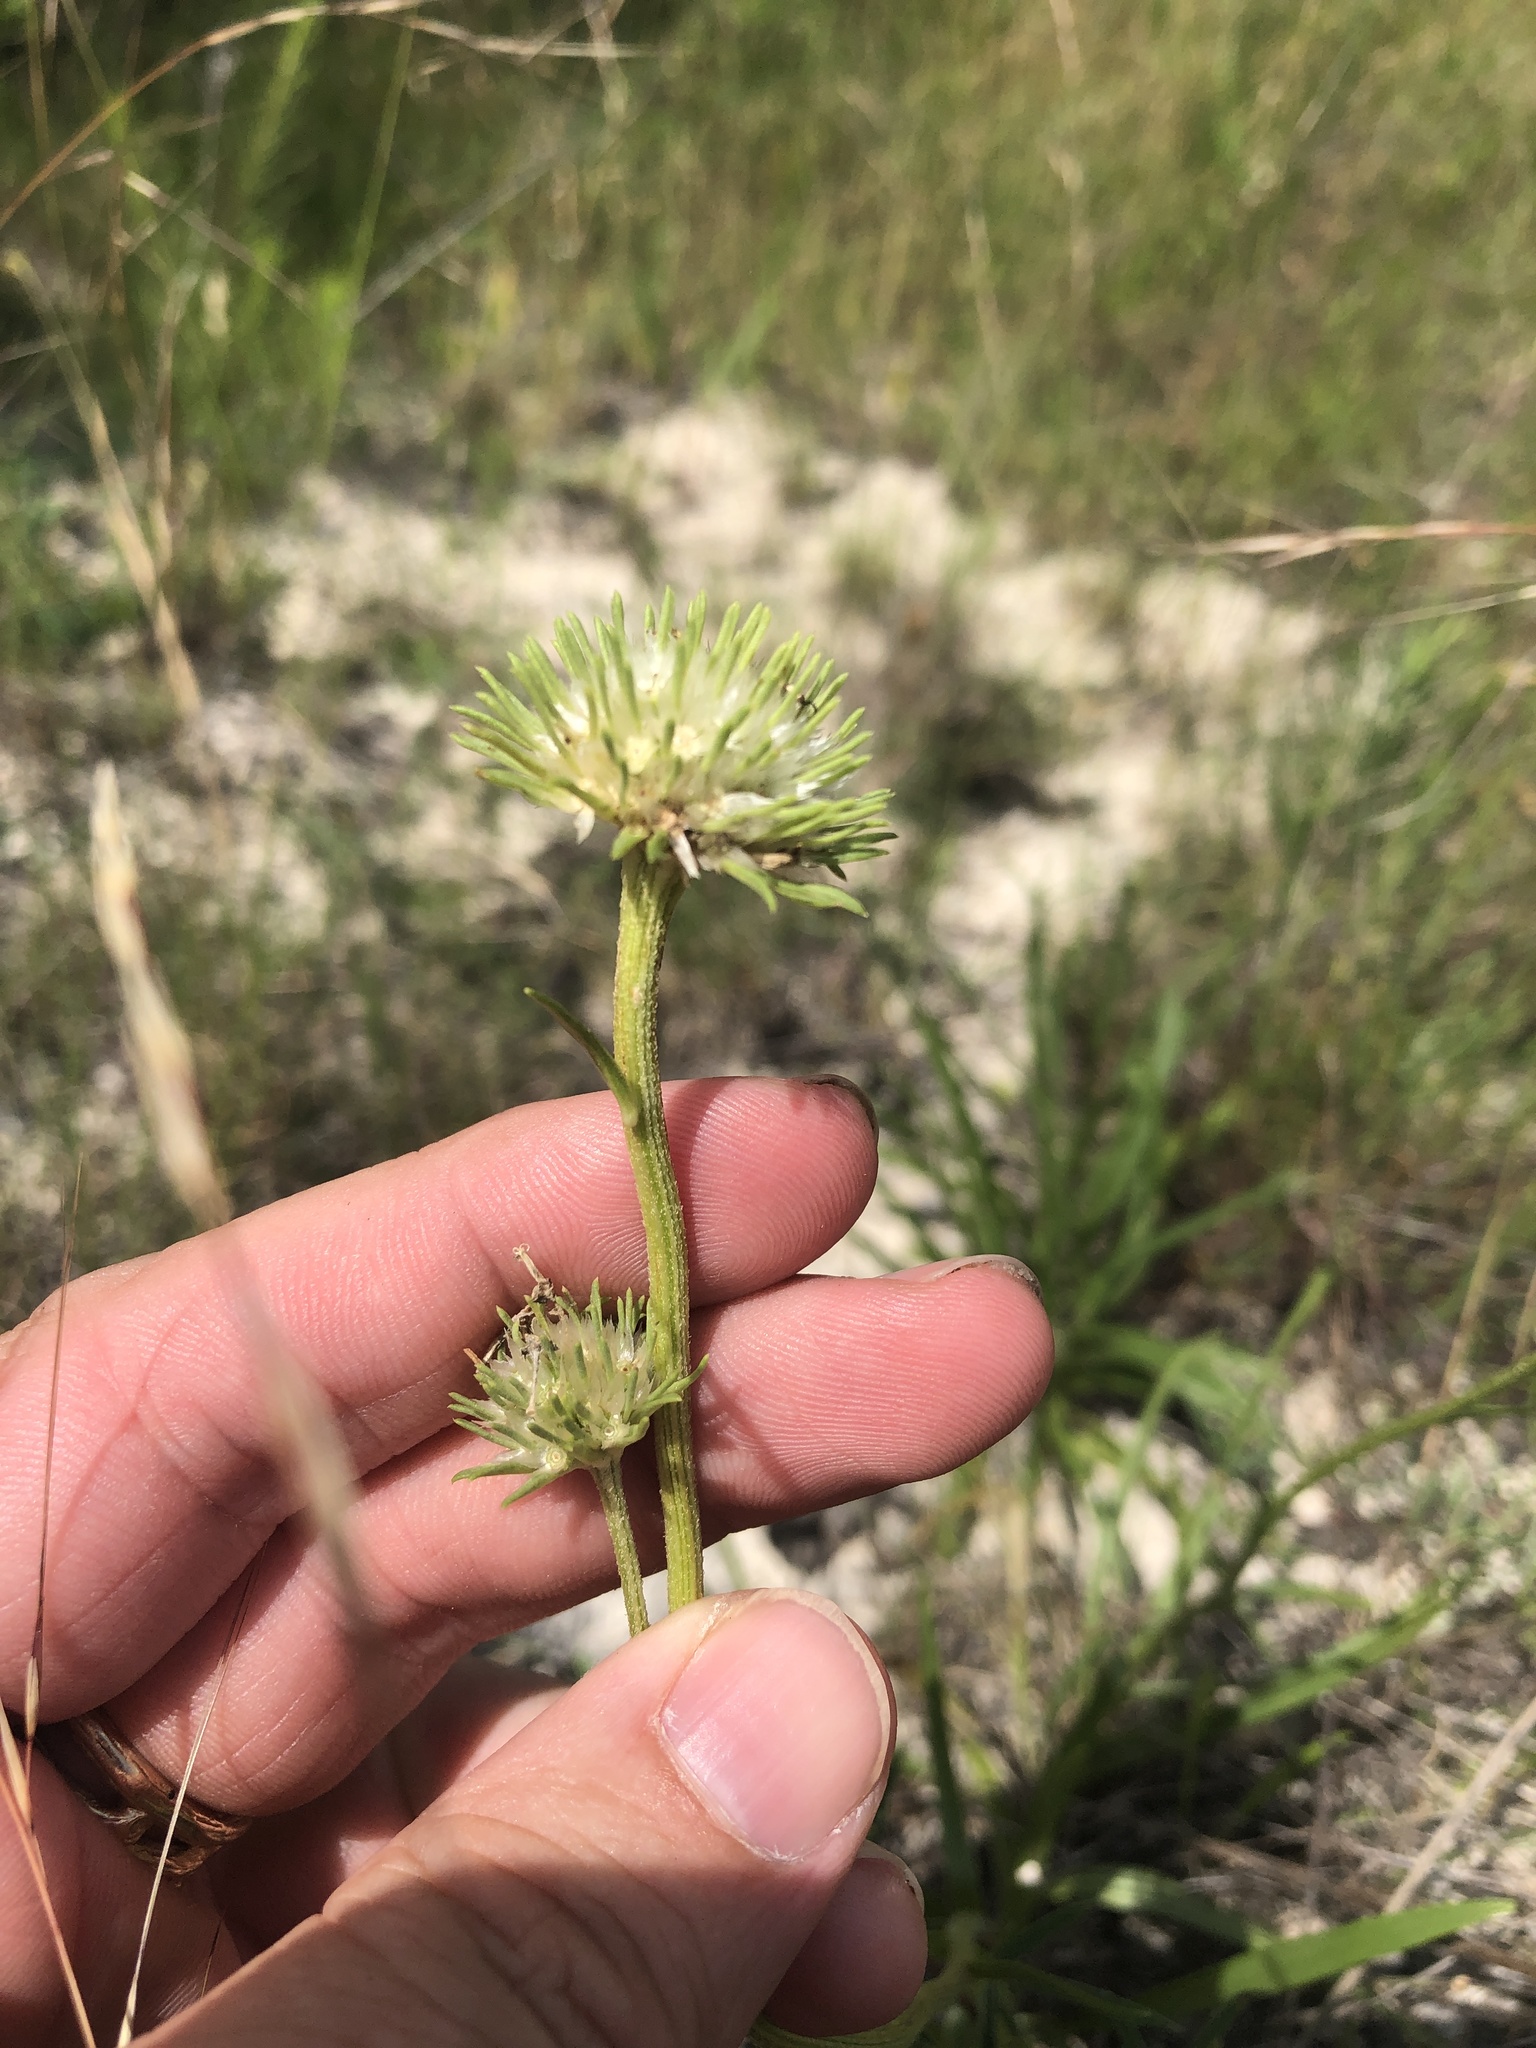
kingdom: Plantae
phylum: Tracheophyta
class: Magnoliopsida
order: Asterales
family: Asteraceae
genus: Marshallia
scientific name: Marshallia caespitosa
